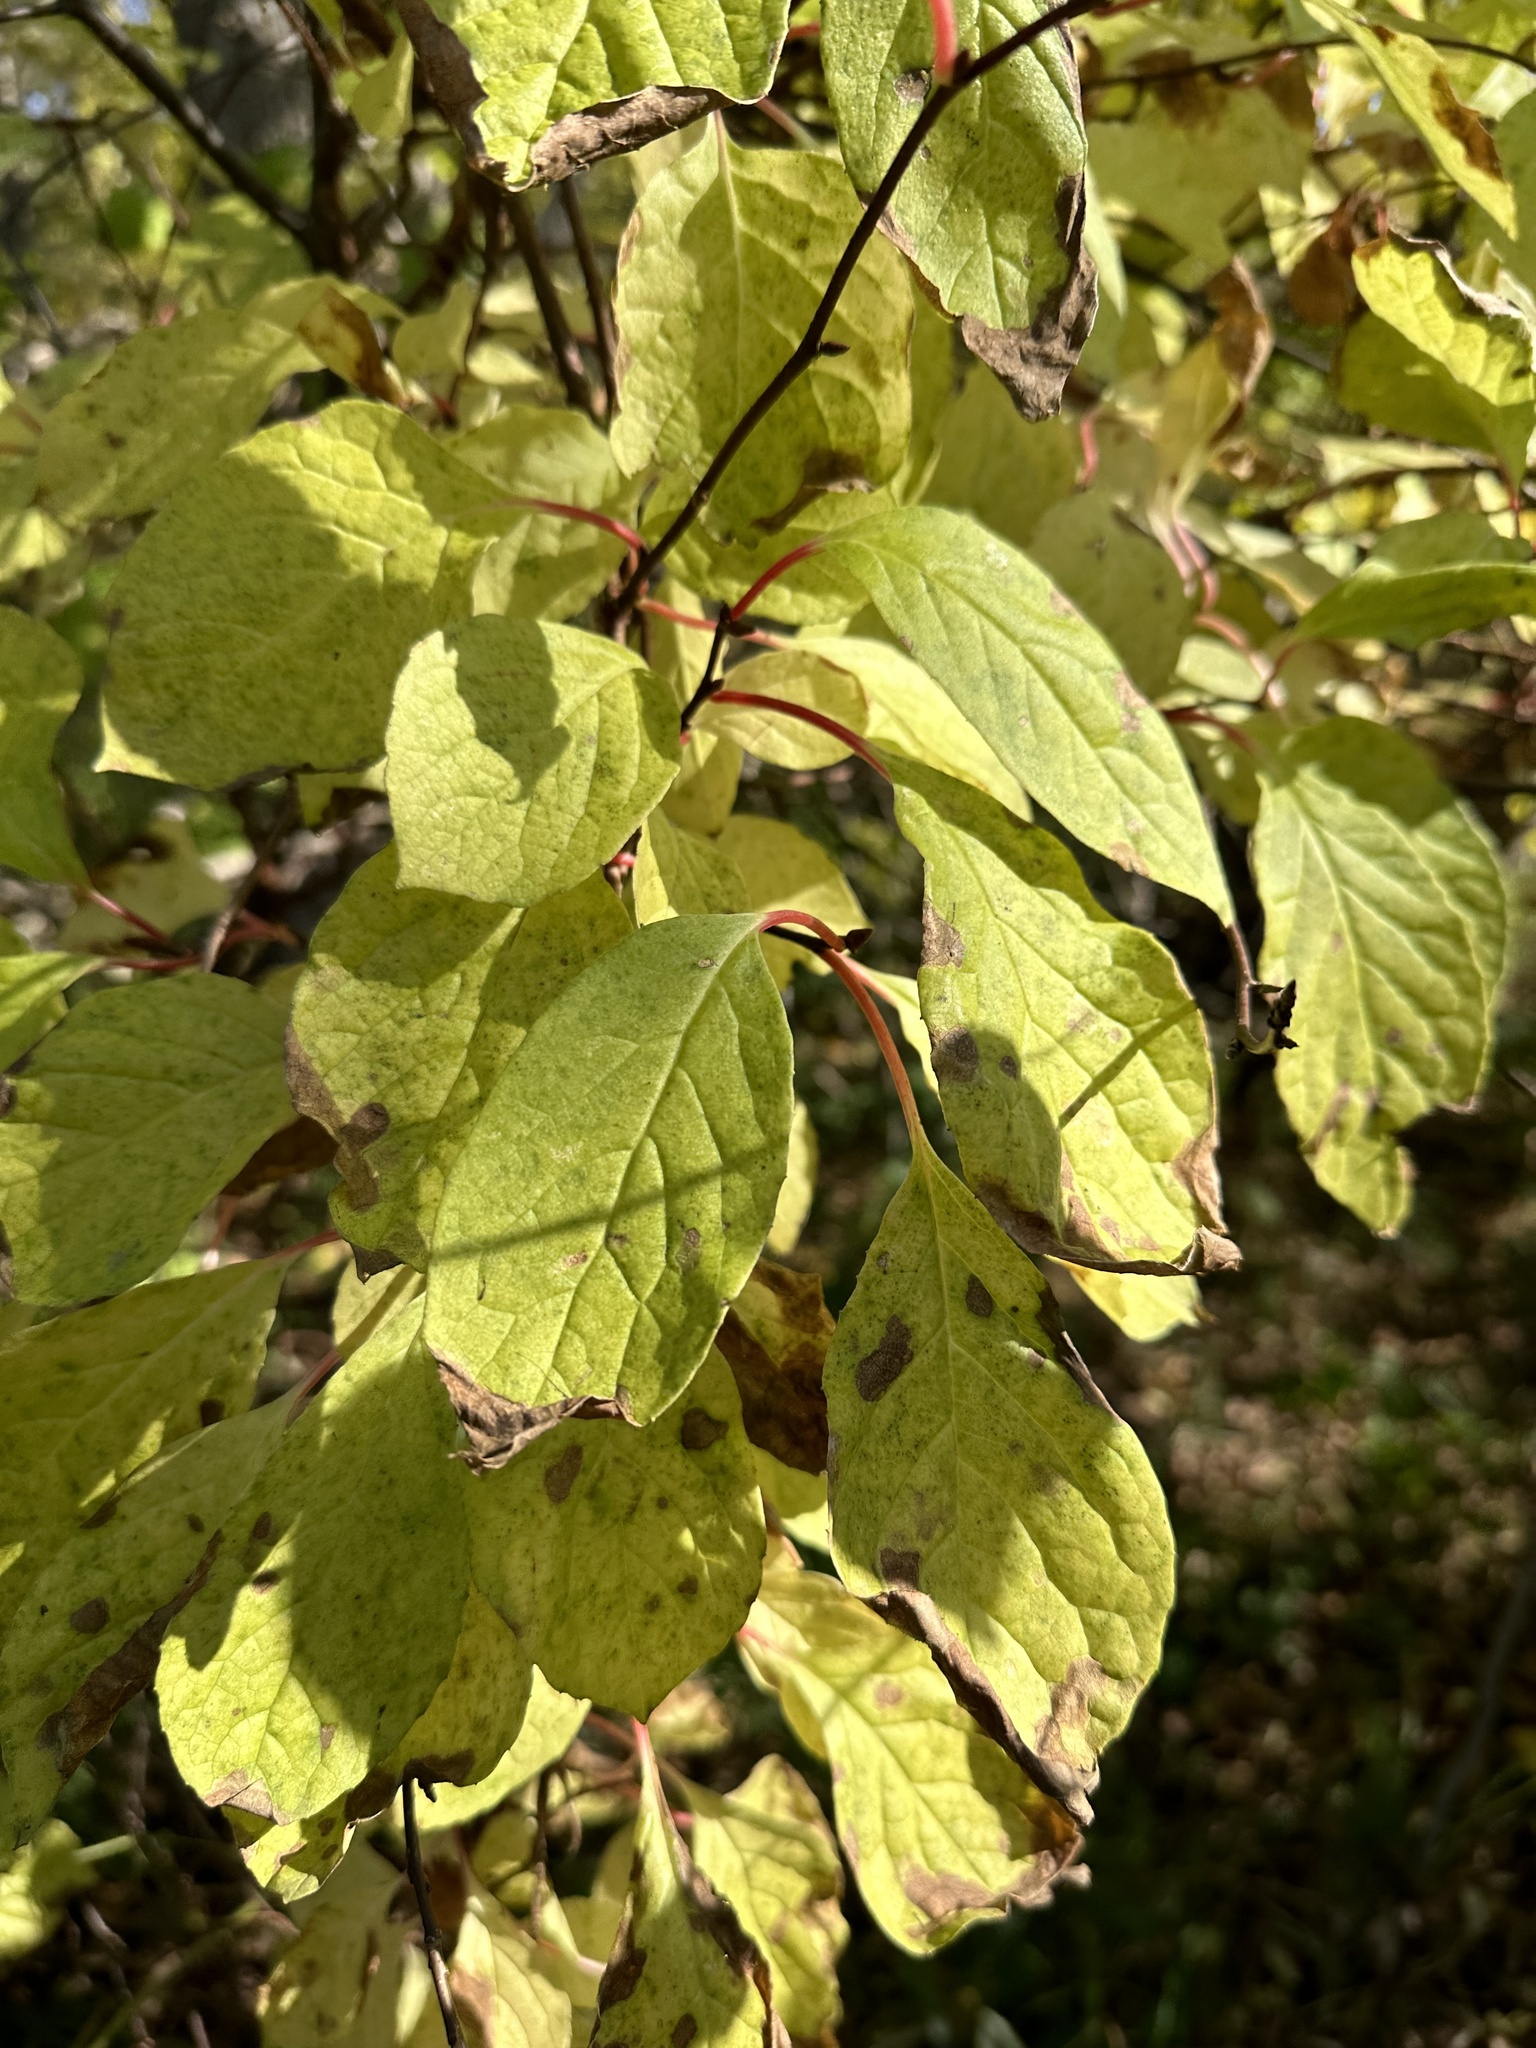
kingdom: Plantae
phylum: Tracheophyta
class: Magnoliopsida
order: Austrobaileyales
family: Schisandraceae
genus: Schisandra
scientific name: Schisandra chinensis
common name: Magnolia-vine
